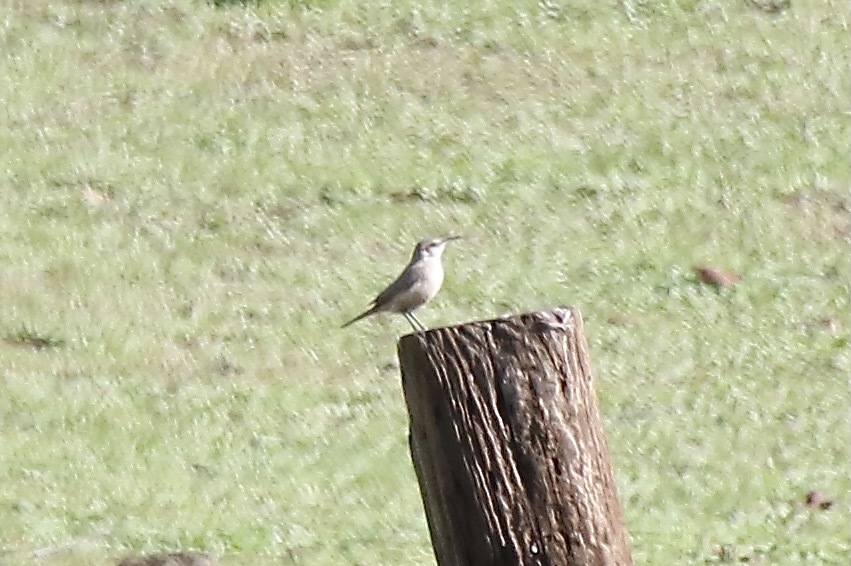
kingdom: Animalia
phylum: Chordata
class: Aves
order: Passeriformes
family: Troglodytidae
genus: Salpinctes
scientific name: Salpinctes obsoletus
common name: Rock wren
